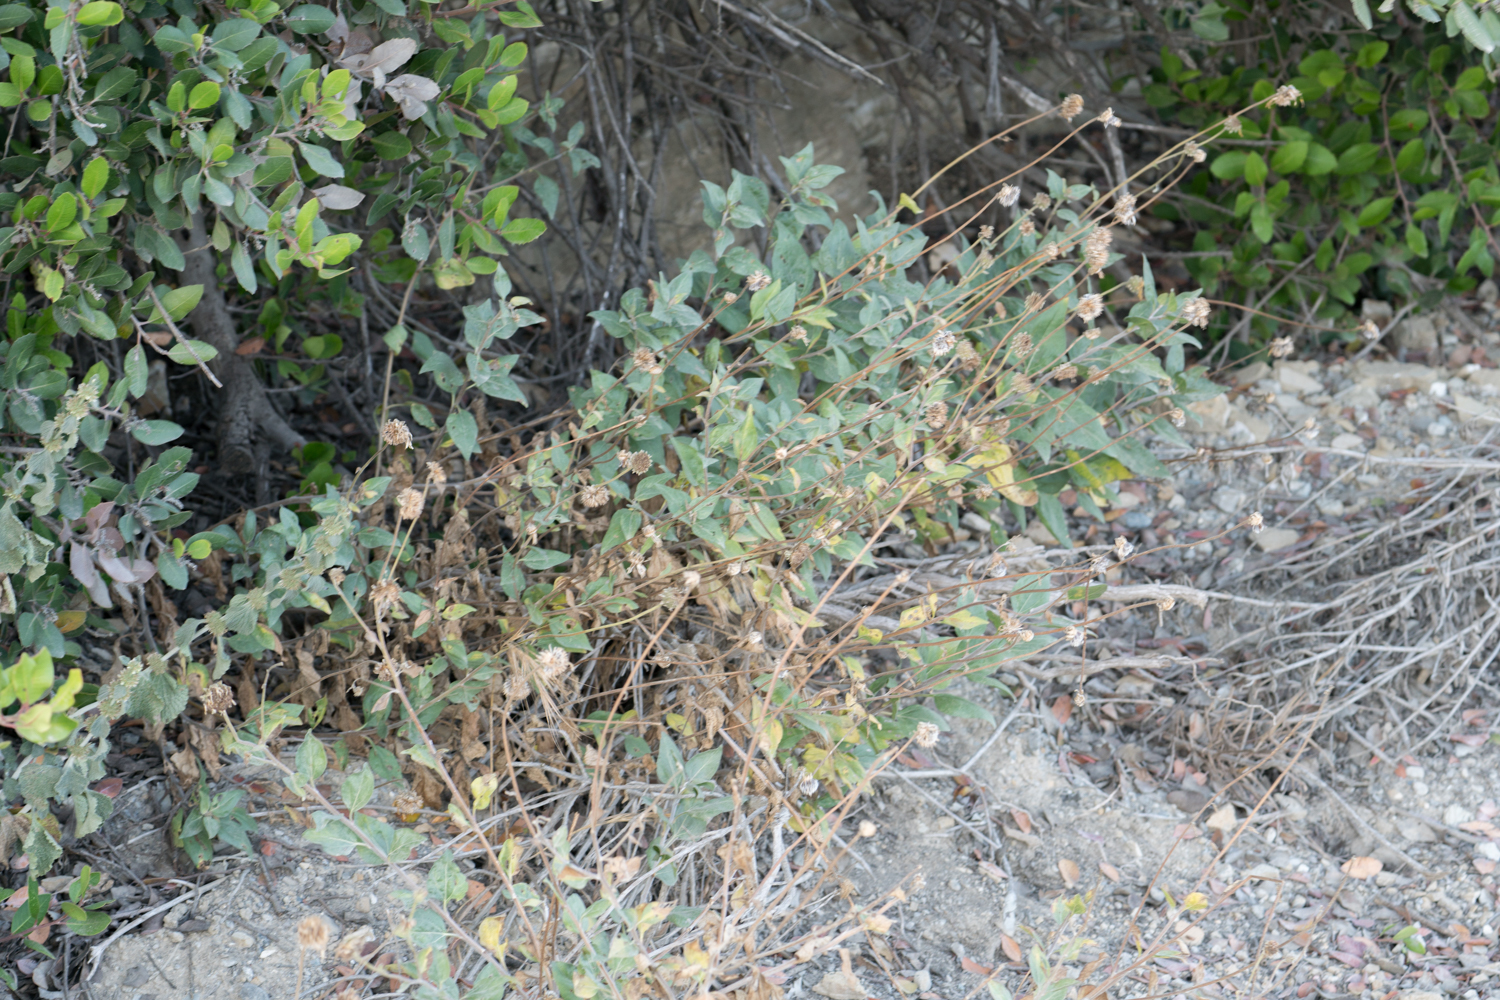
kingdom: Plantae
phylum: Tracheophyta
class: Magnoliopsida
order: Asterales
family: Asteraceae
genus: Encelia
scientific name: Encelia californica
